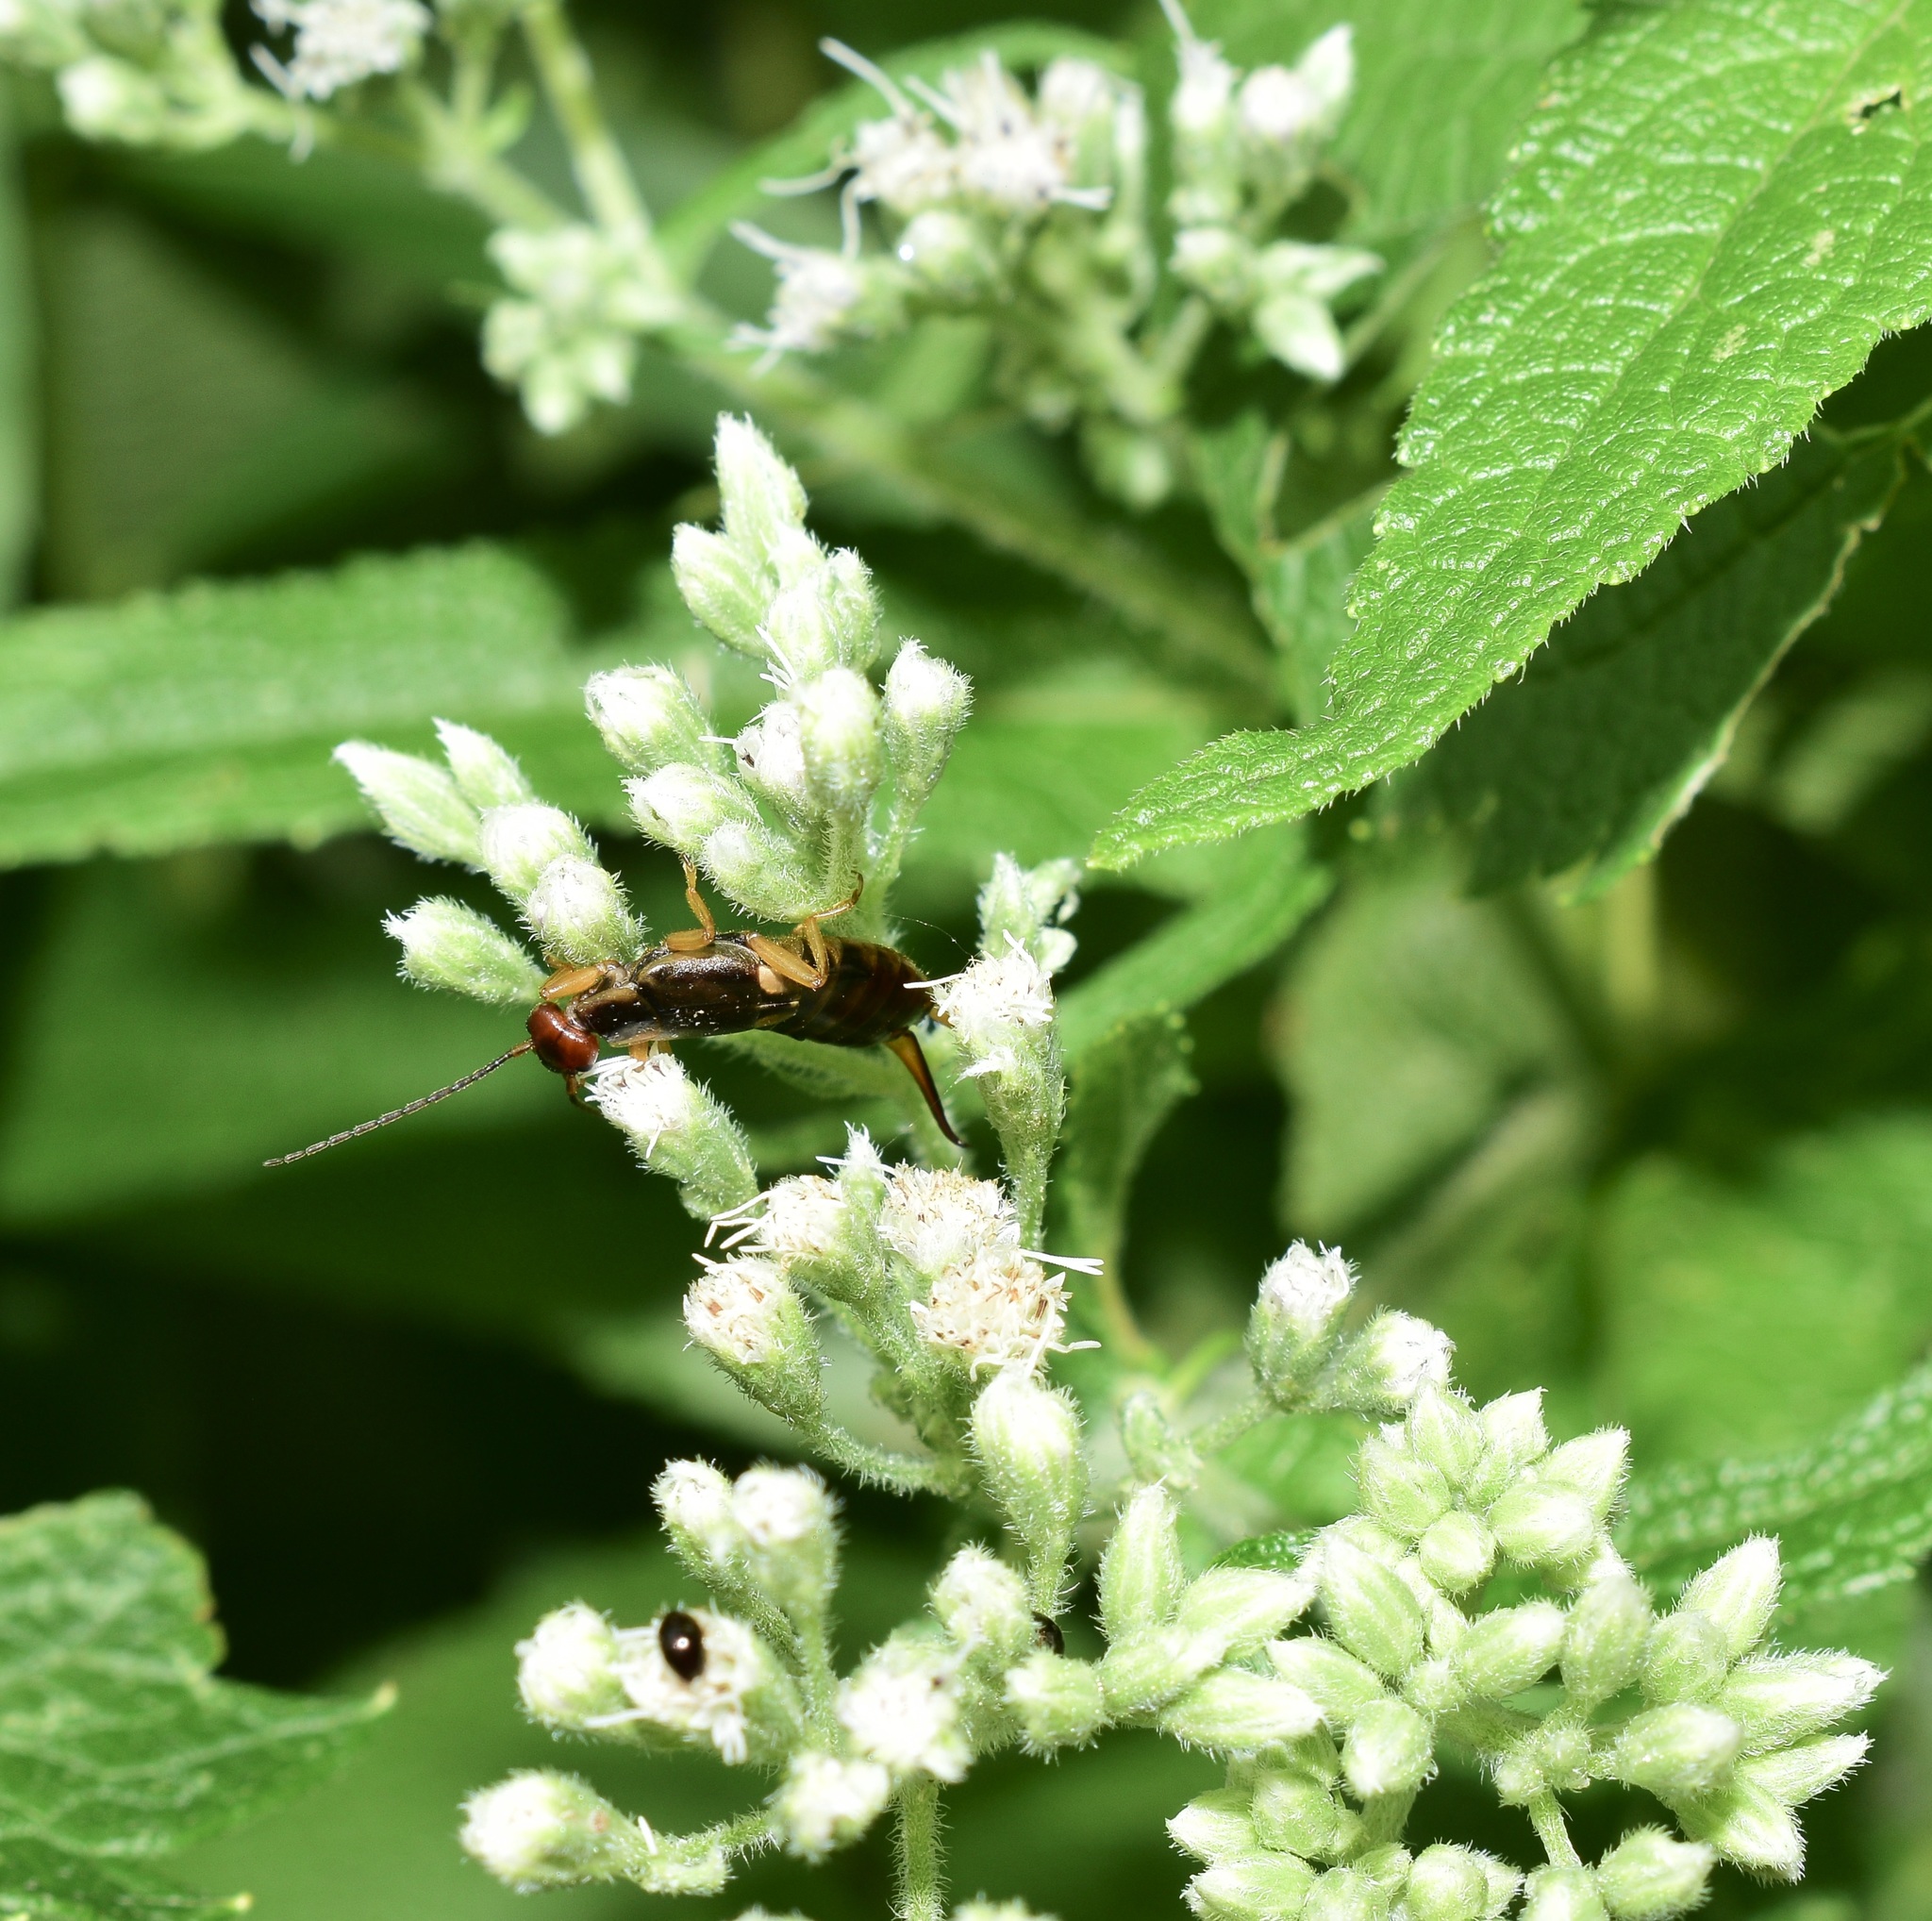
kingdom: Animalia
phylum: Arthropoda
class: Insecta
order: Dermaptera
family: Forficulidae
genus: Forficula
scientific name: Forficula
